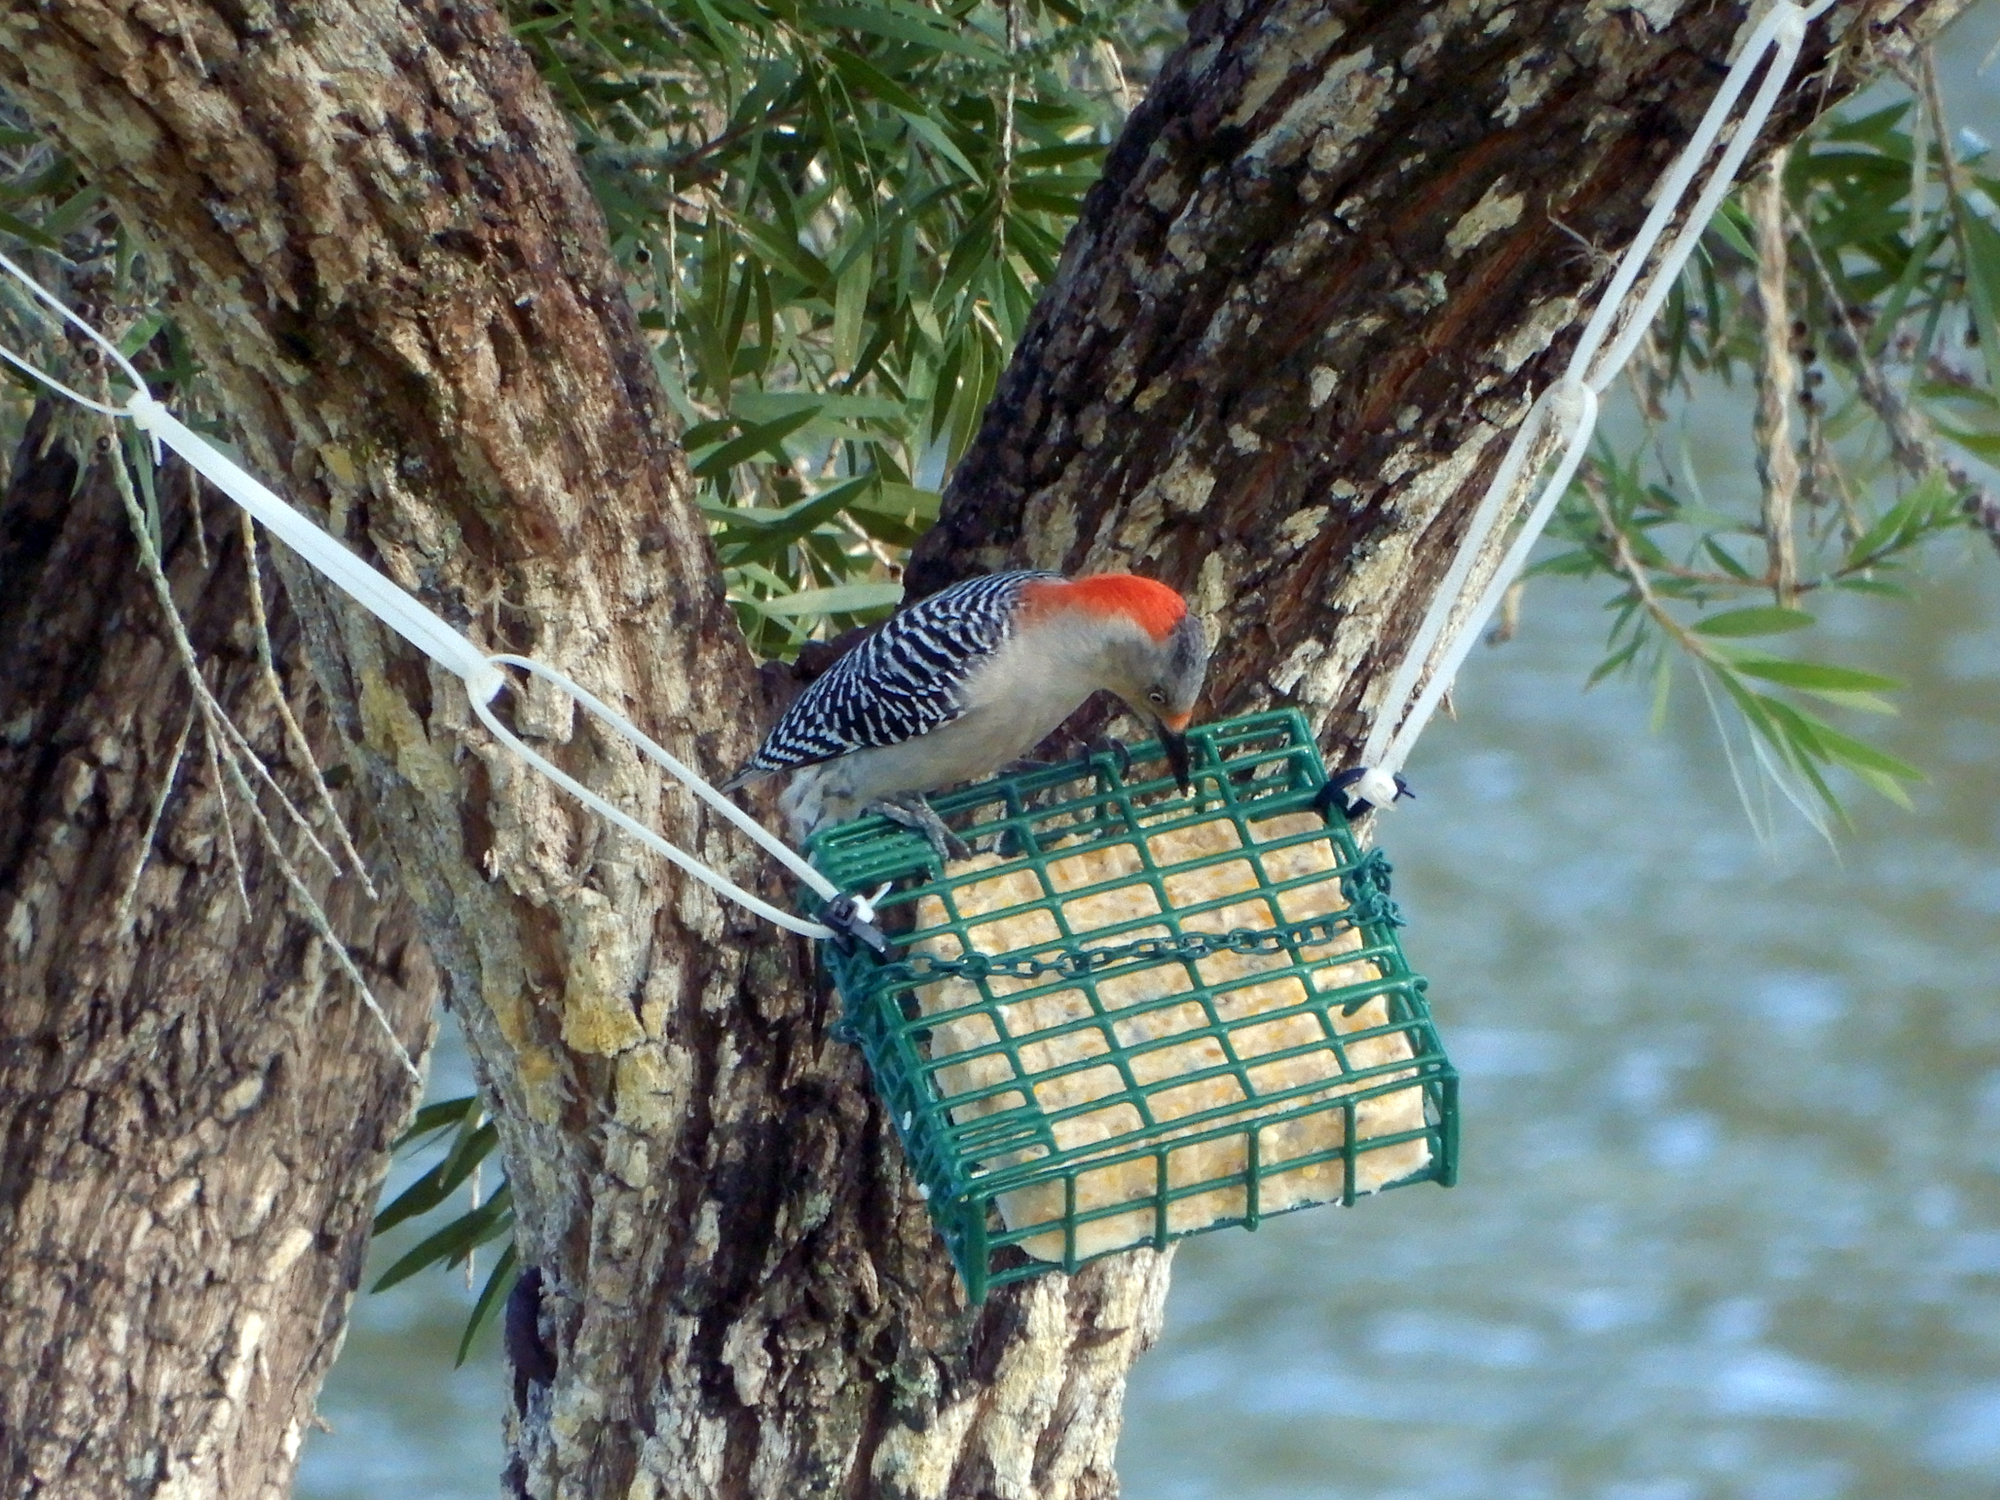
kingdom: Animalia
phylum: Chordata
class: Aves
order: Piciformes
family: Picidae
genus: Melanerpes
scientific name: Melanerpes carolinus
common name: Red-bellied woodpecker
